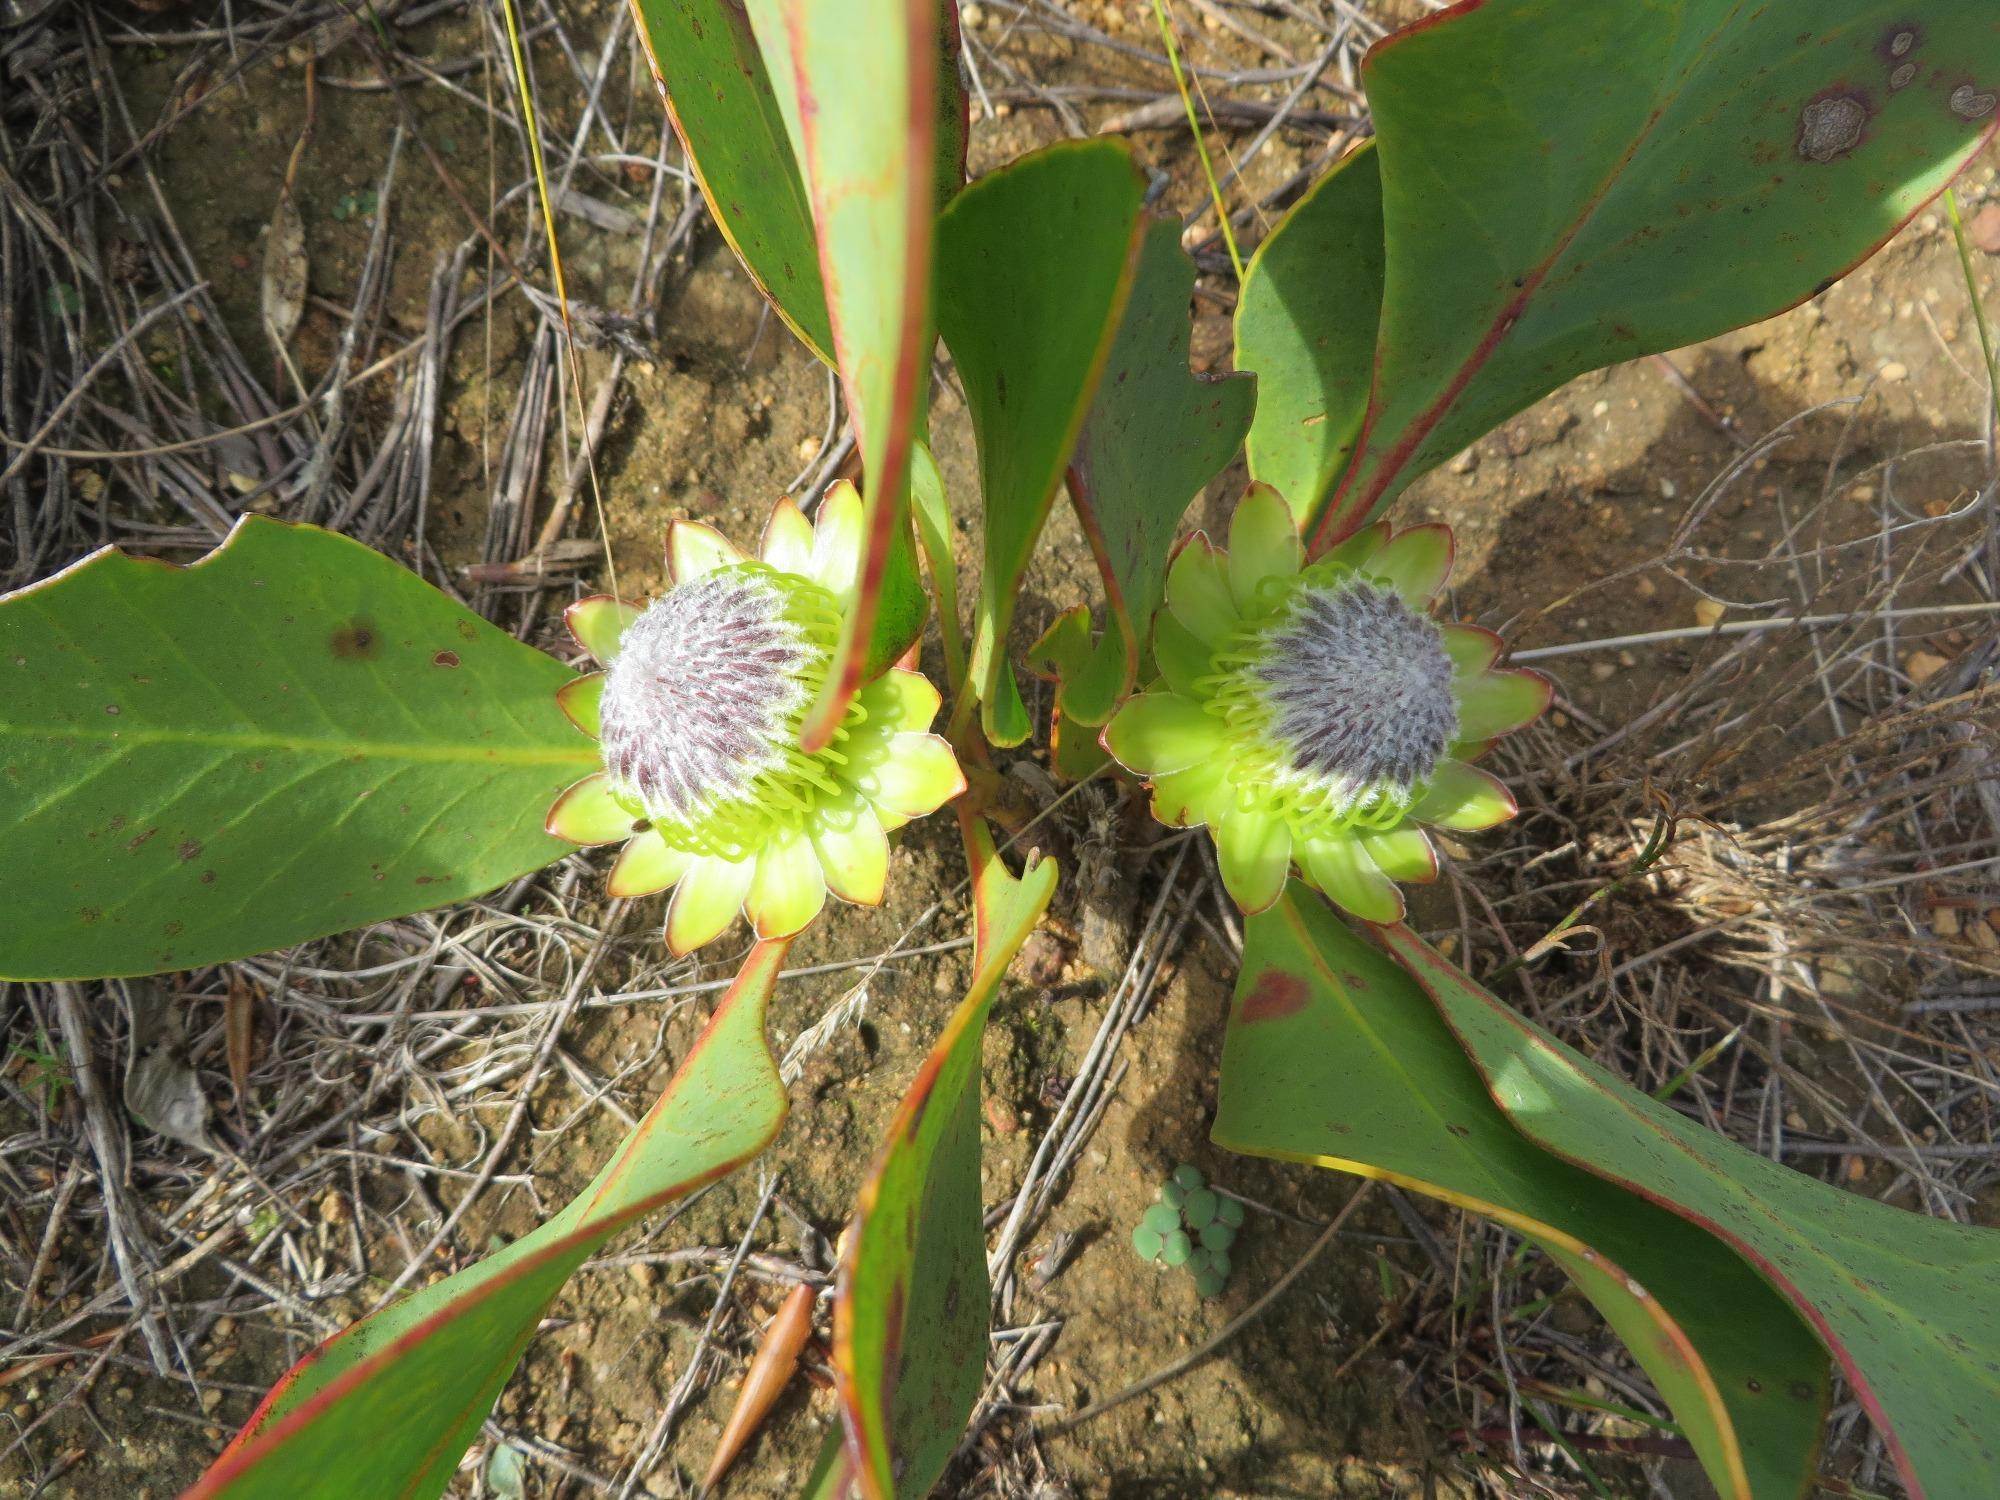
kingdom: Plantae
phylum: Tracheophyta
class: Magnoliopsida
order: Proteales
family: Proteaceae
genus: Protea
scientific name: Protea acaulos
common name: Common ground sugarbush
